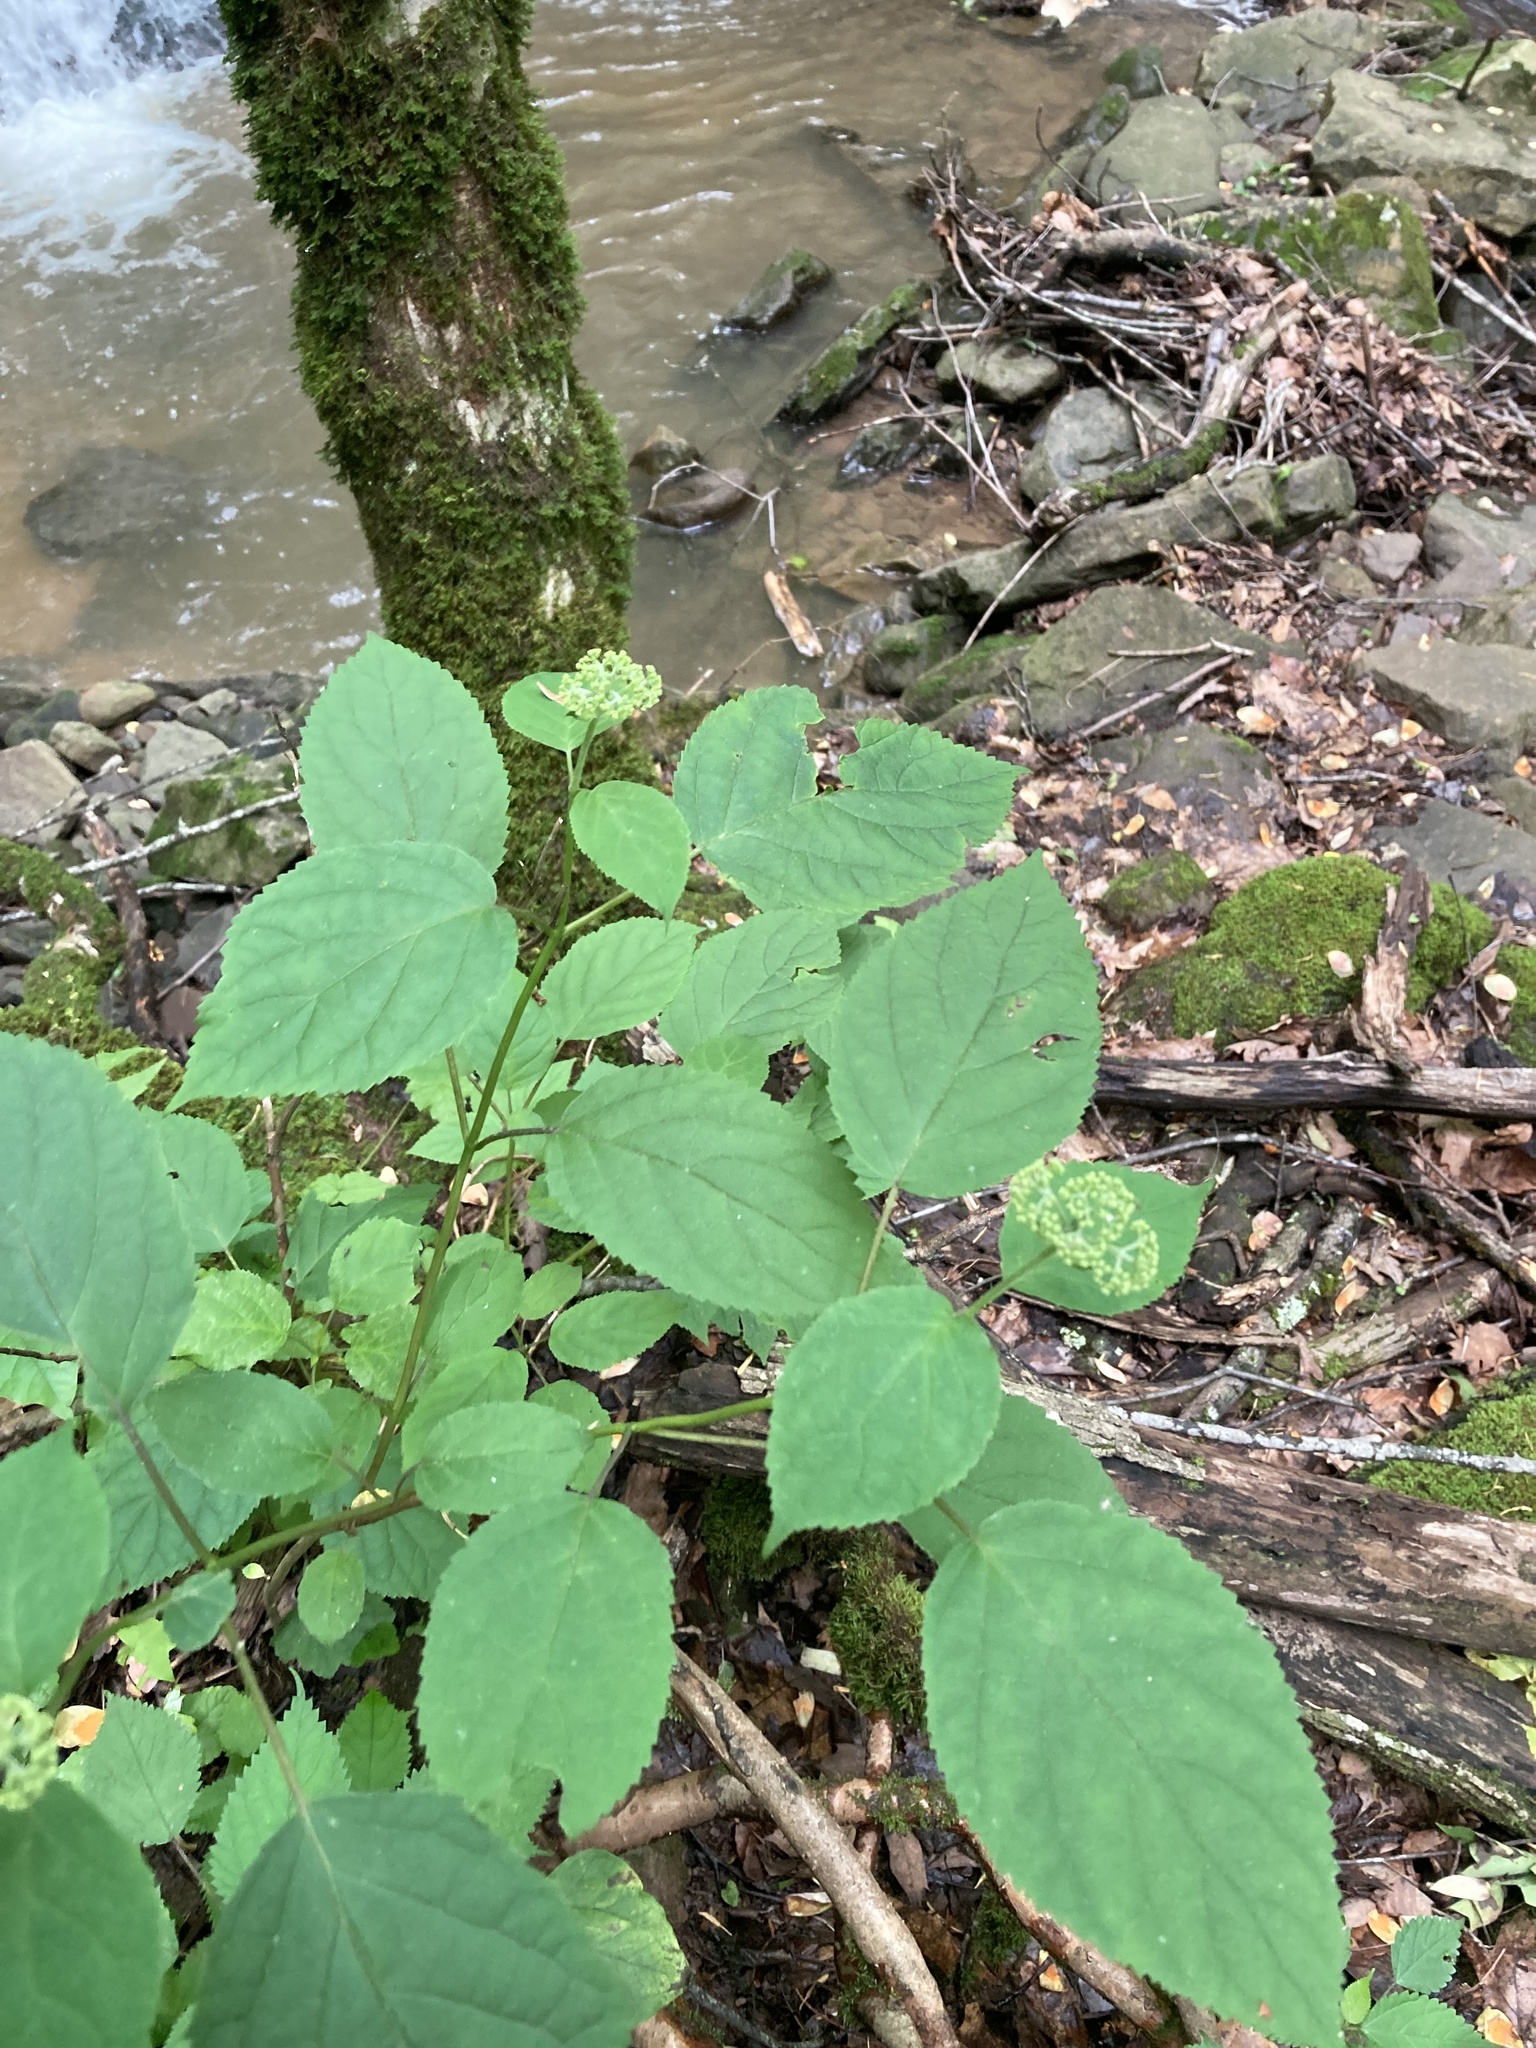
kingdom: Plantae
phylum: Tracheophyta
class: Magnoliopsida
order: Cornales
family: Hydrangeaceae
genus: Hydrangea
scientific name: Hydrangea arborescens
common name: Sevenbark
